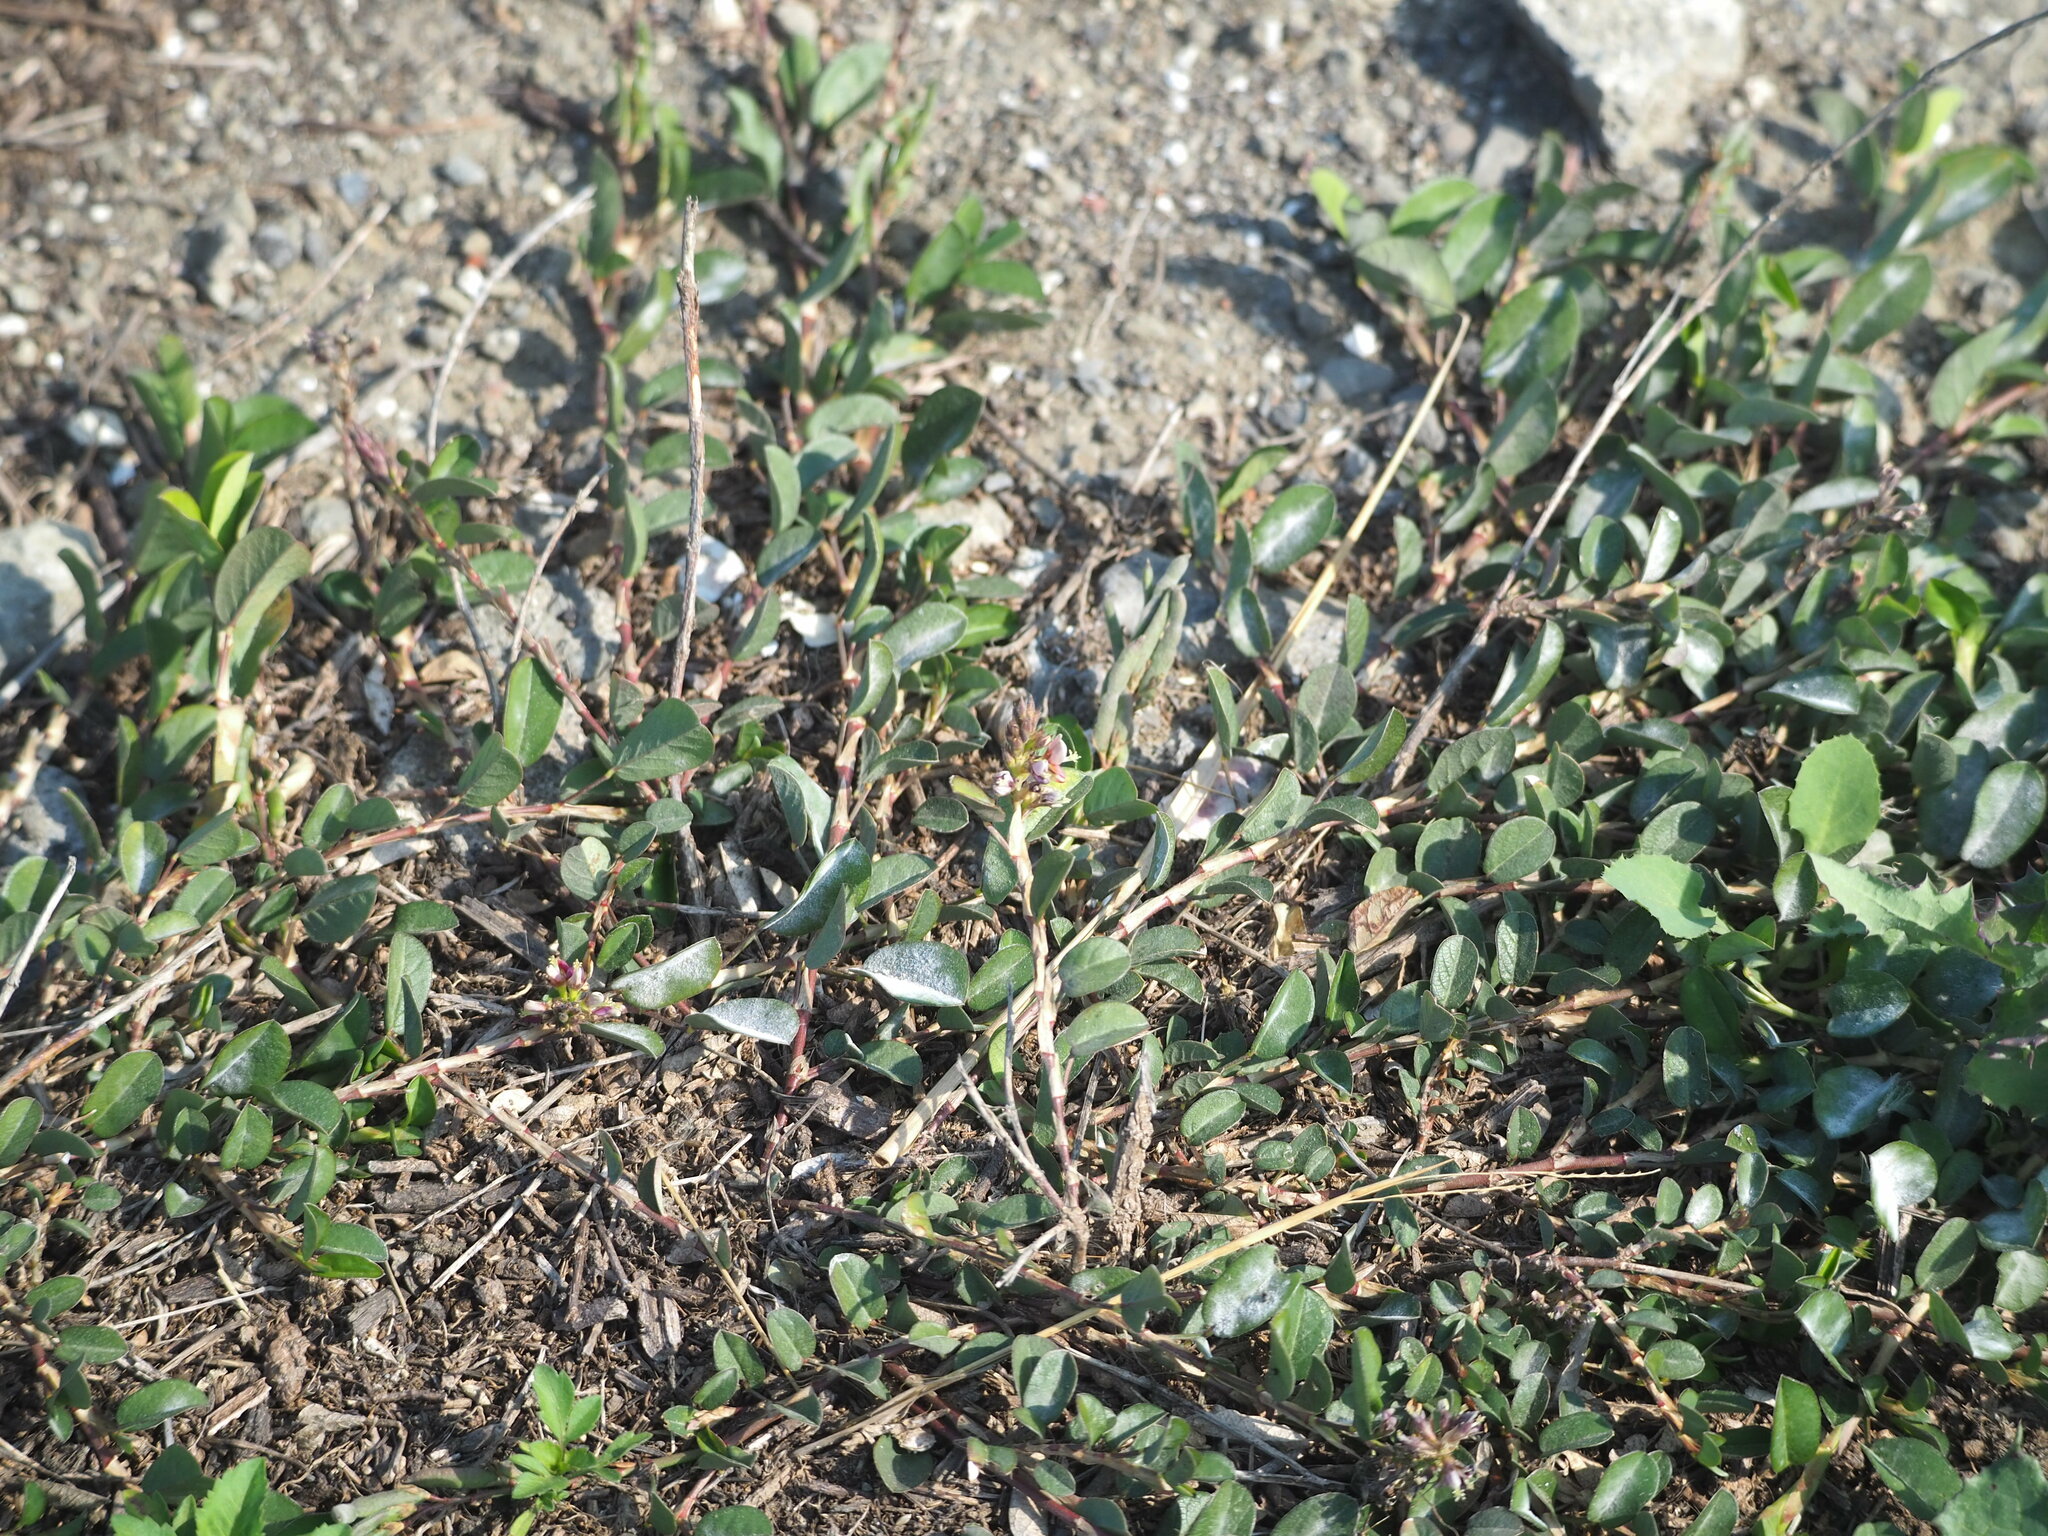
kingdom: Plantae
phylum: Tracheophyta
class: Magnoliopsida
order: Fabales
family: Fabaceae
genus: Alysicarpus
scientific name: Alysicarpus vaginalis
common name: White moneywort
